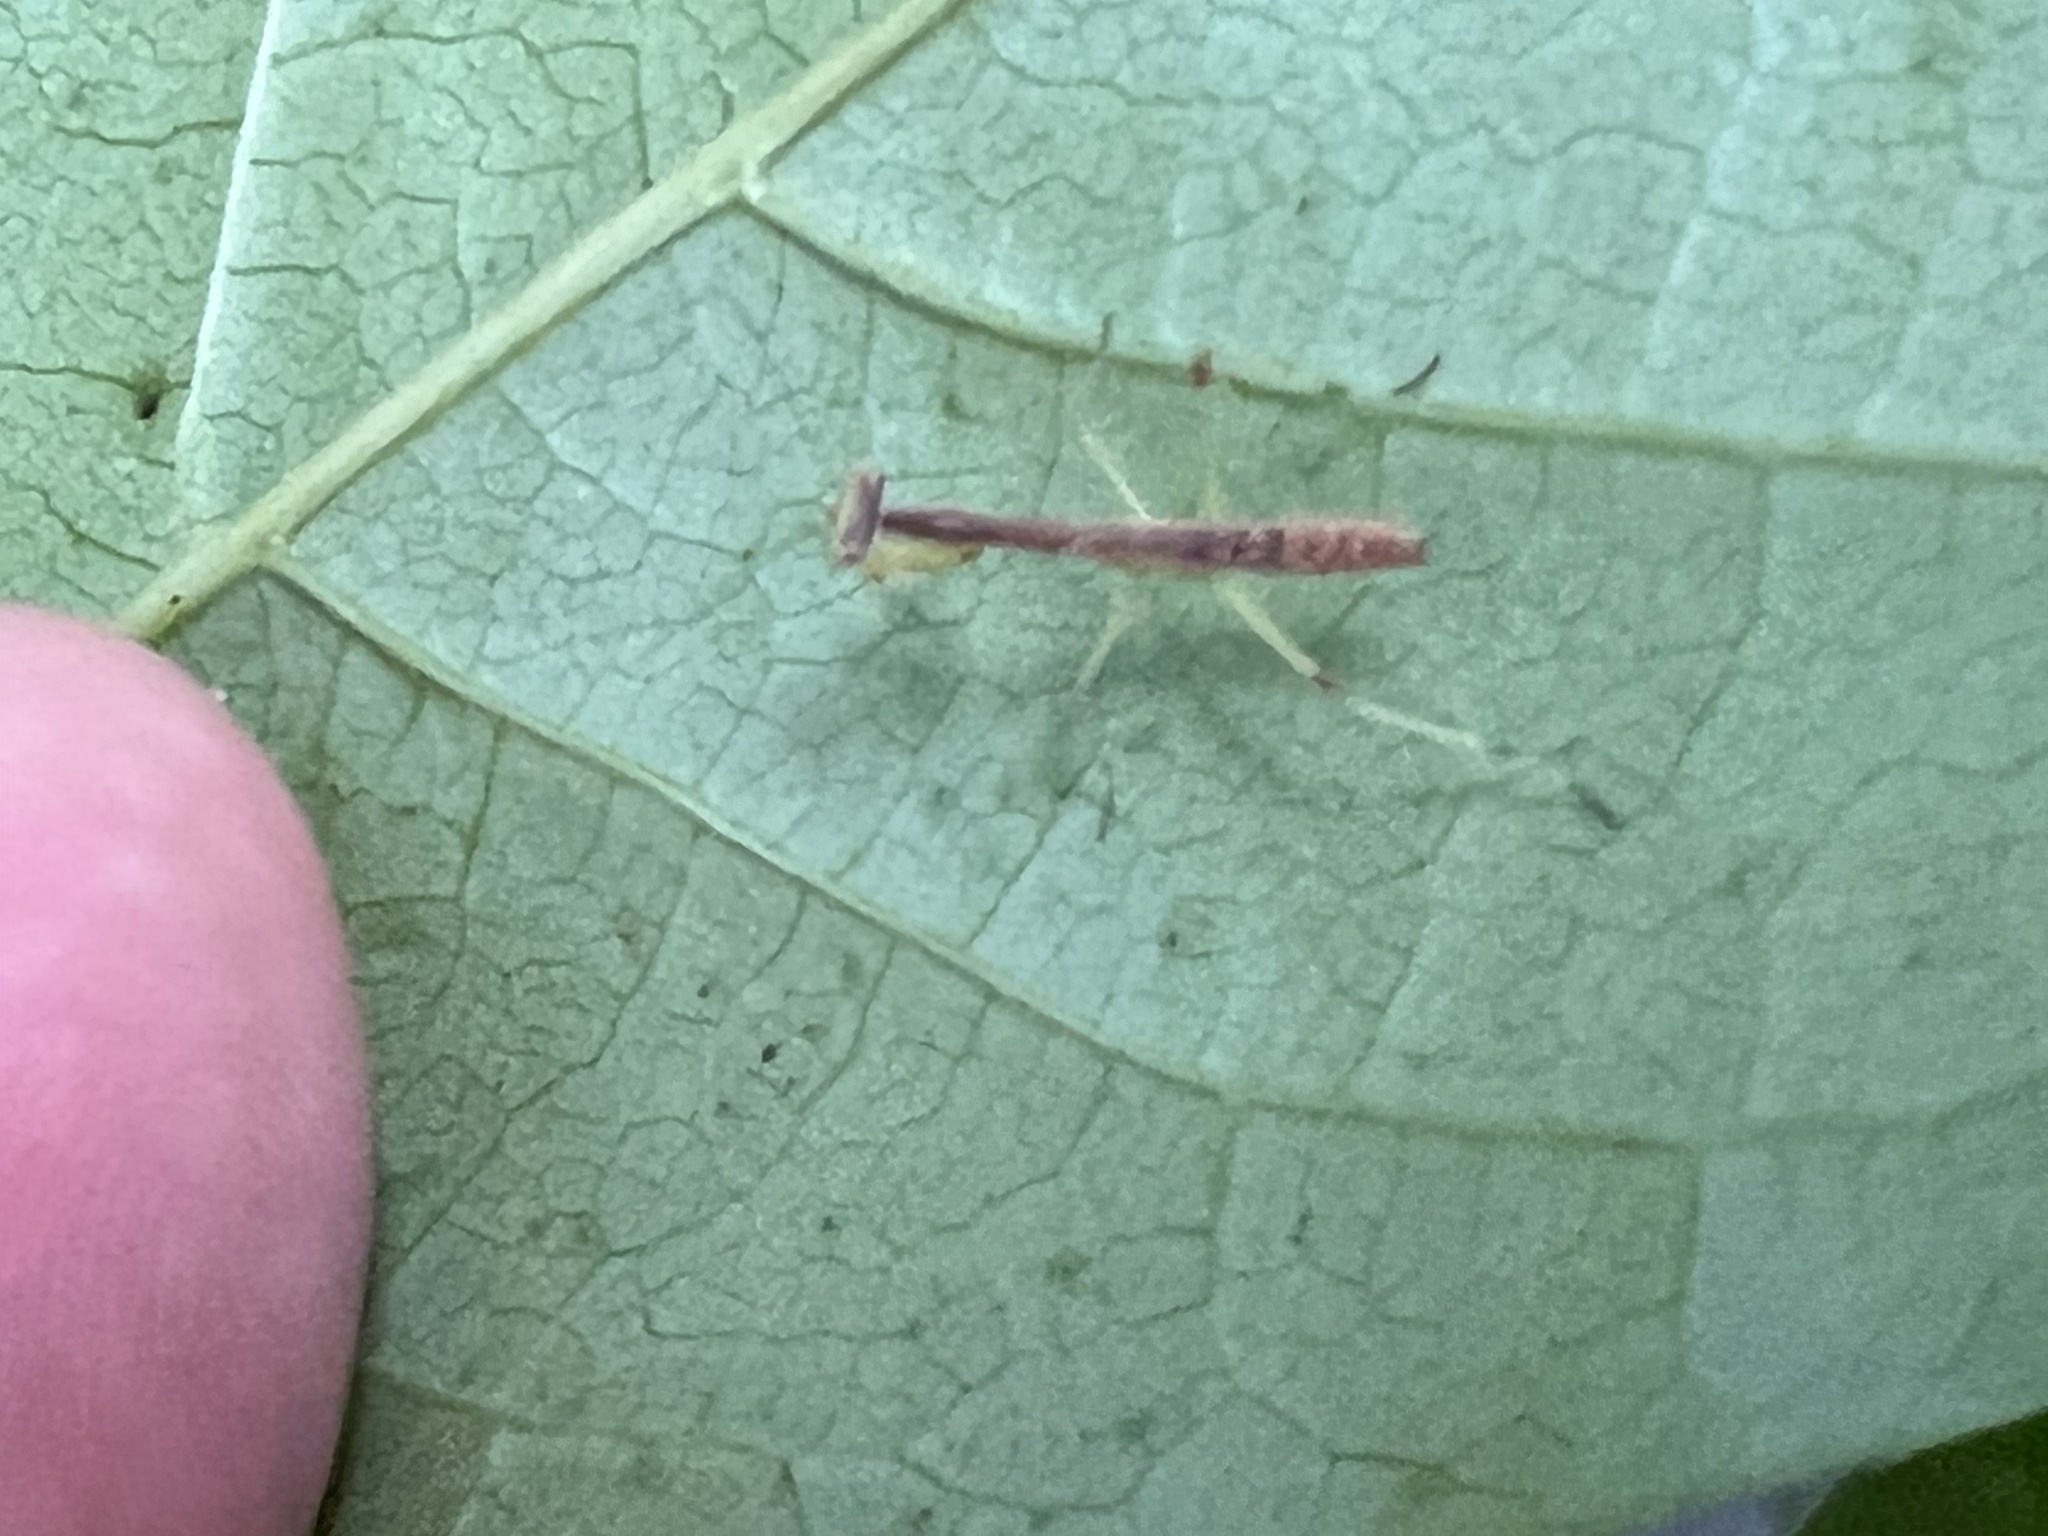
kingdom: Animalia
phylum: Arthropoda
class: Insecta
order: Mantodea
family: Mantidae
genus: Stagmomantis
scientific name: Stagmomantis carolina
